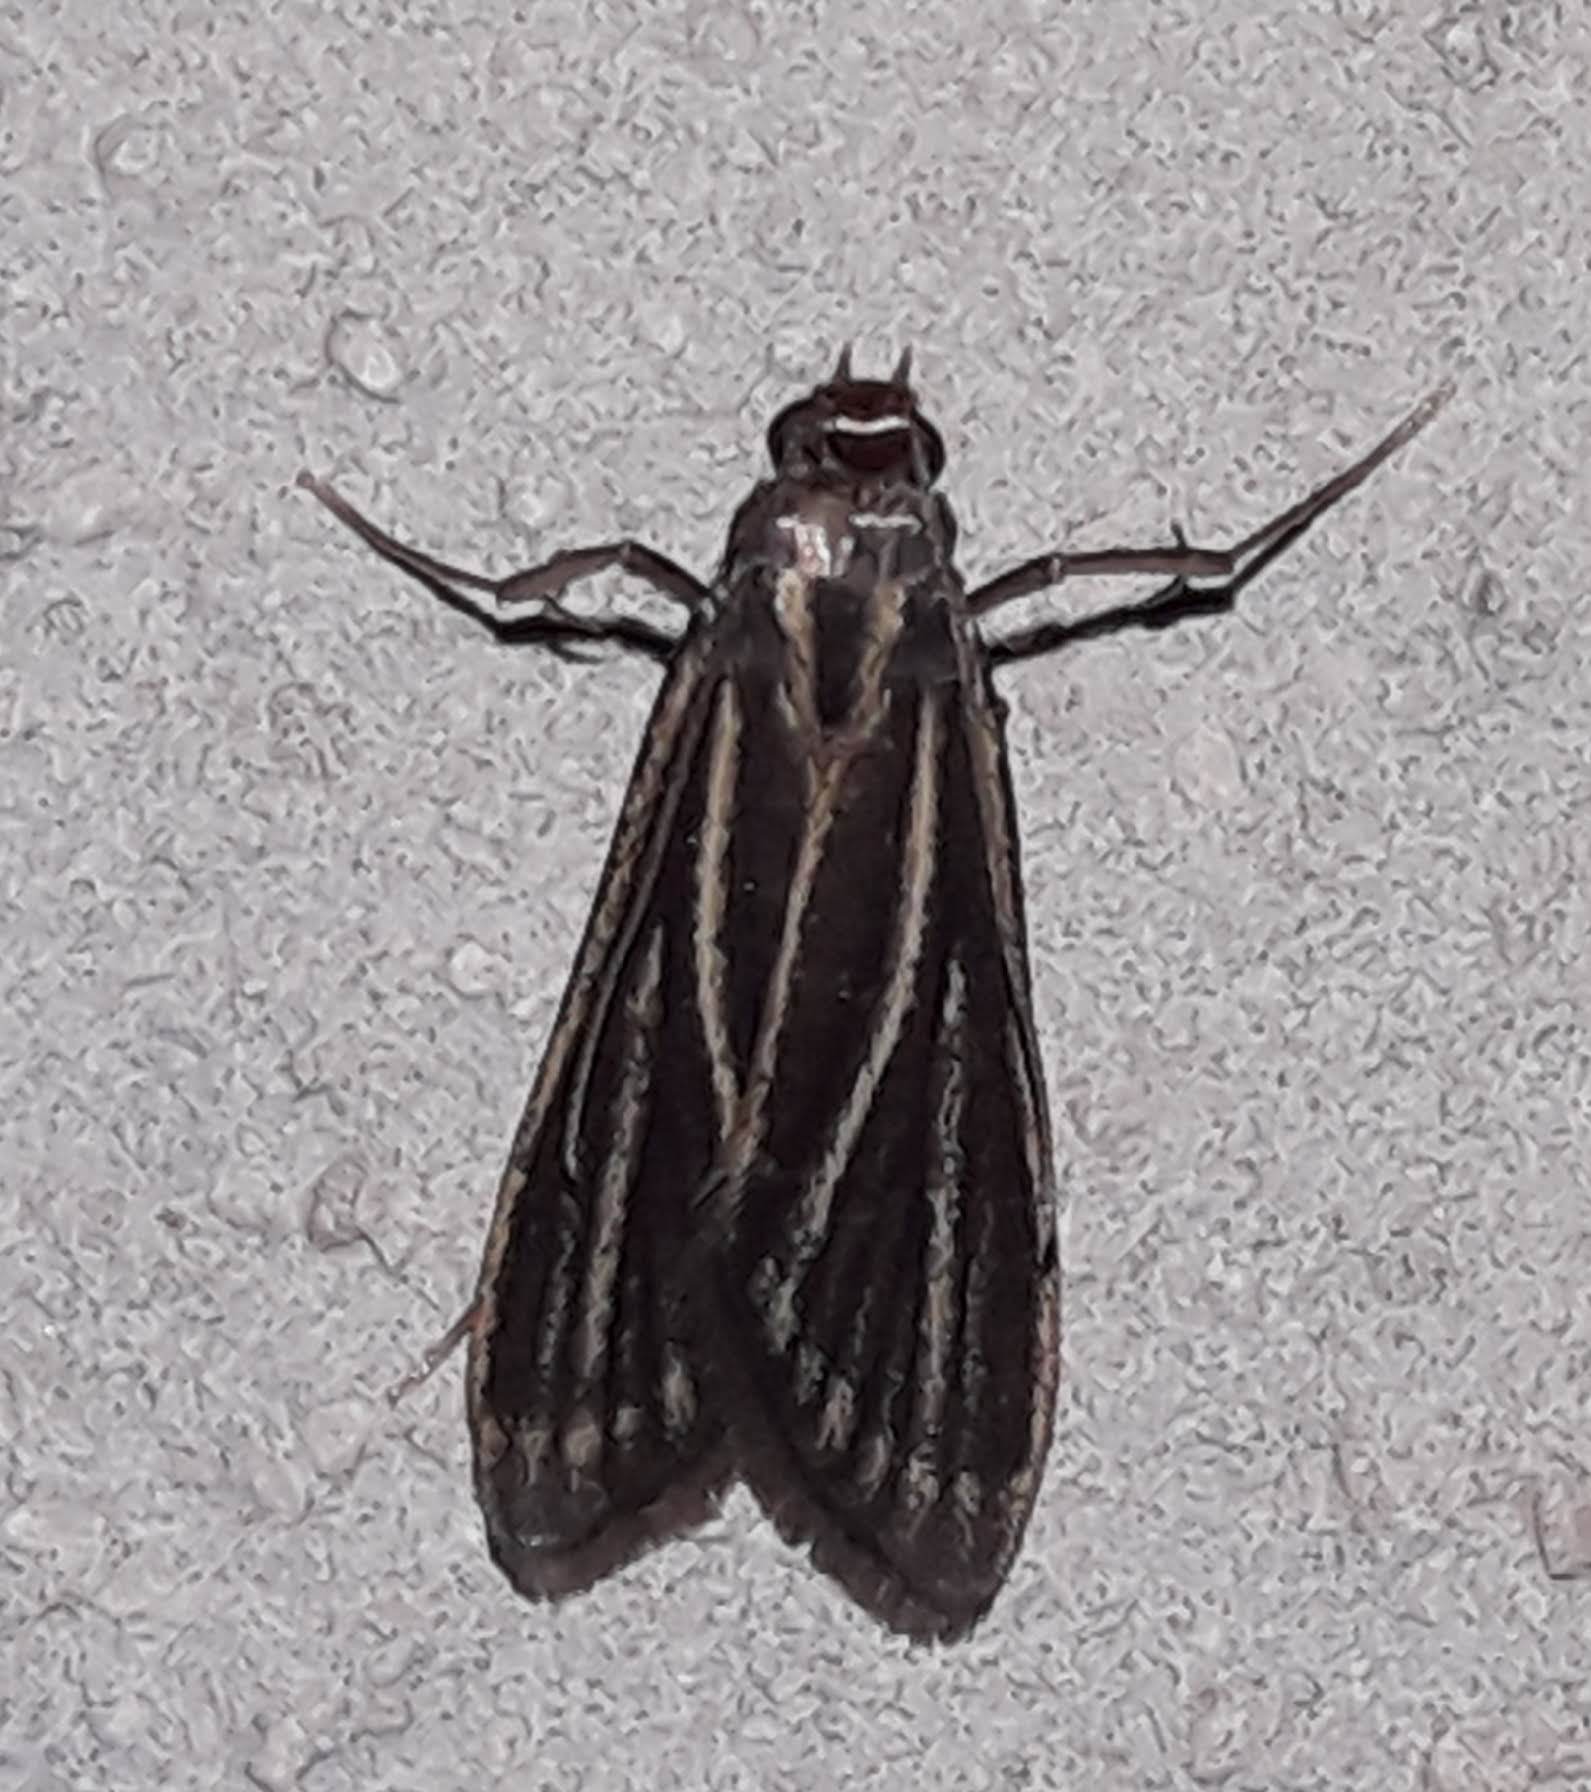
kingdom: Animalia
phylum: Arthropoda
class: Insecta
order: Lepidoptera
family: Pyralidae
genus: Cryptoses
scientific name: Cryptoses choloepi
